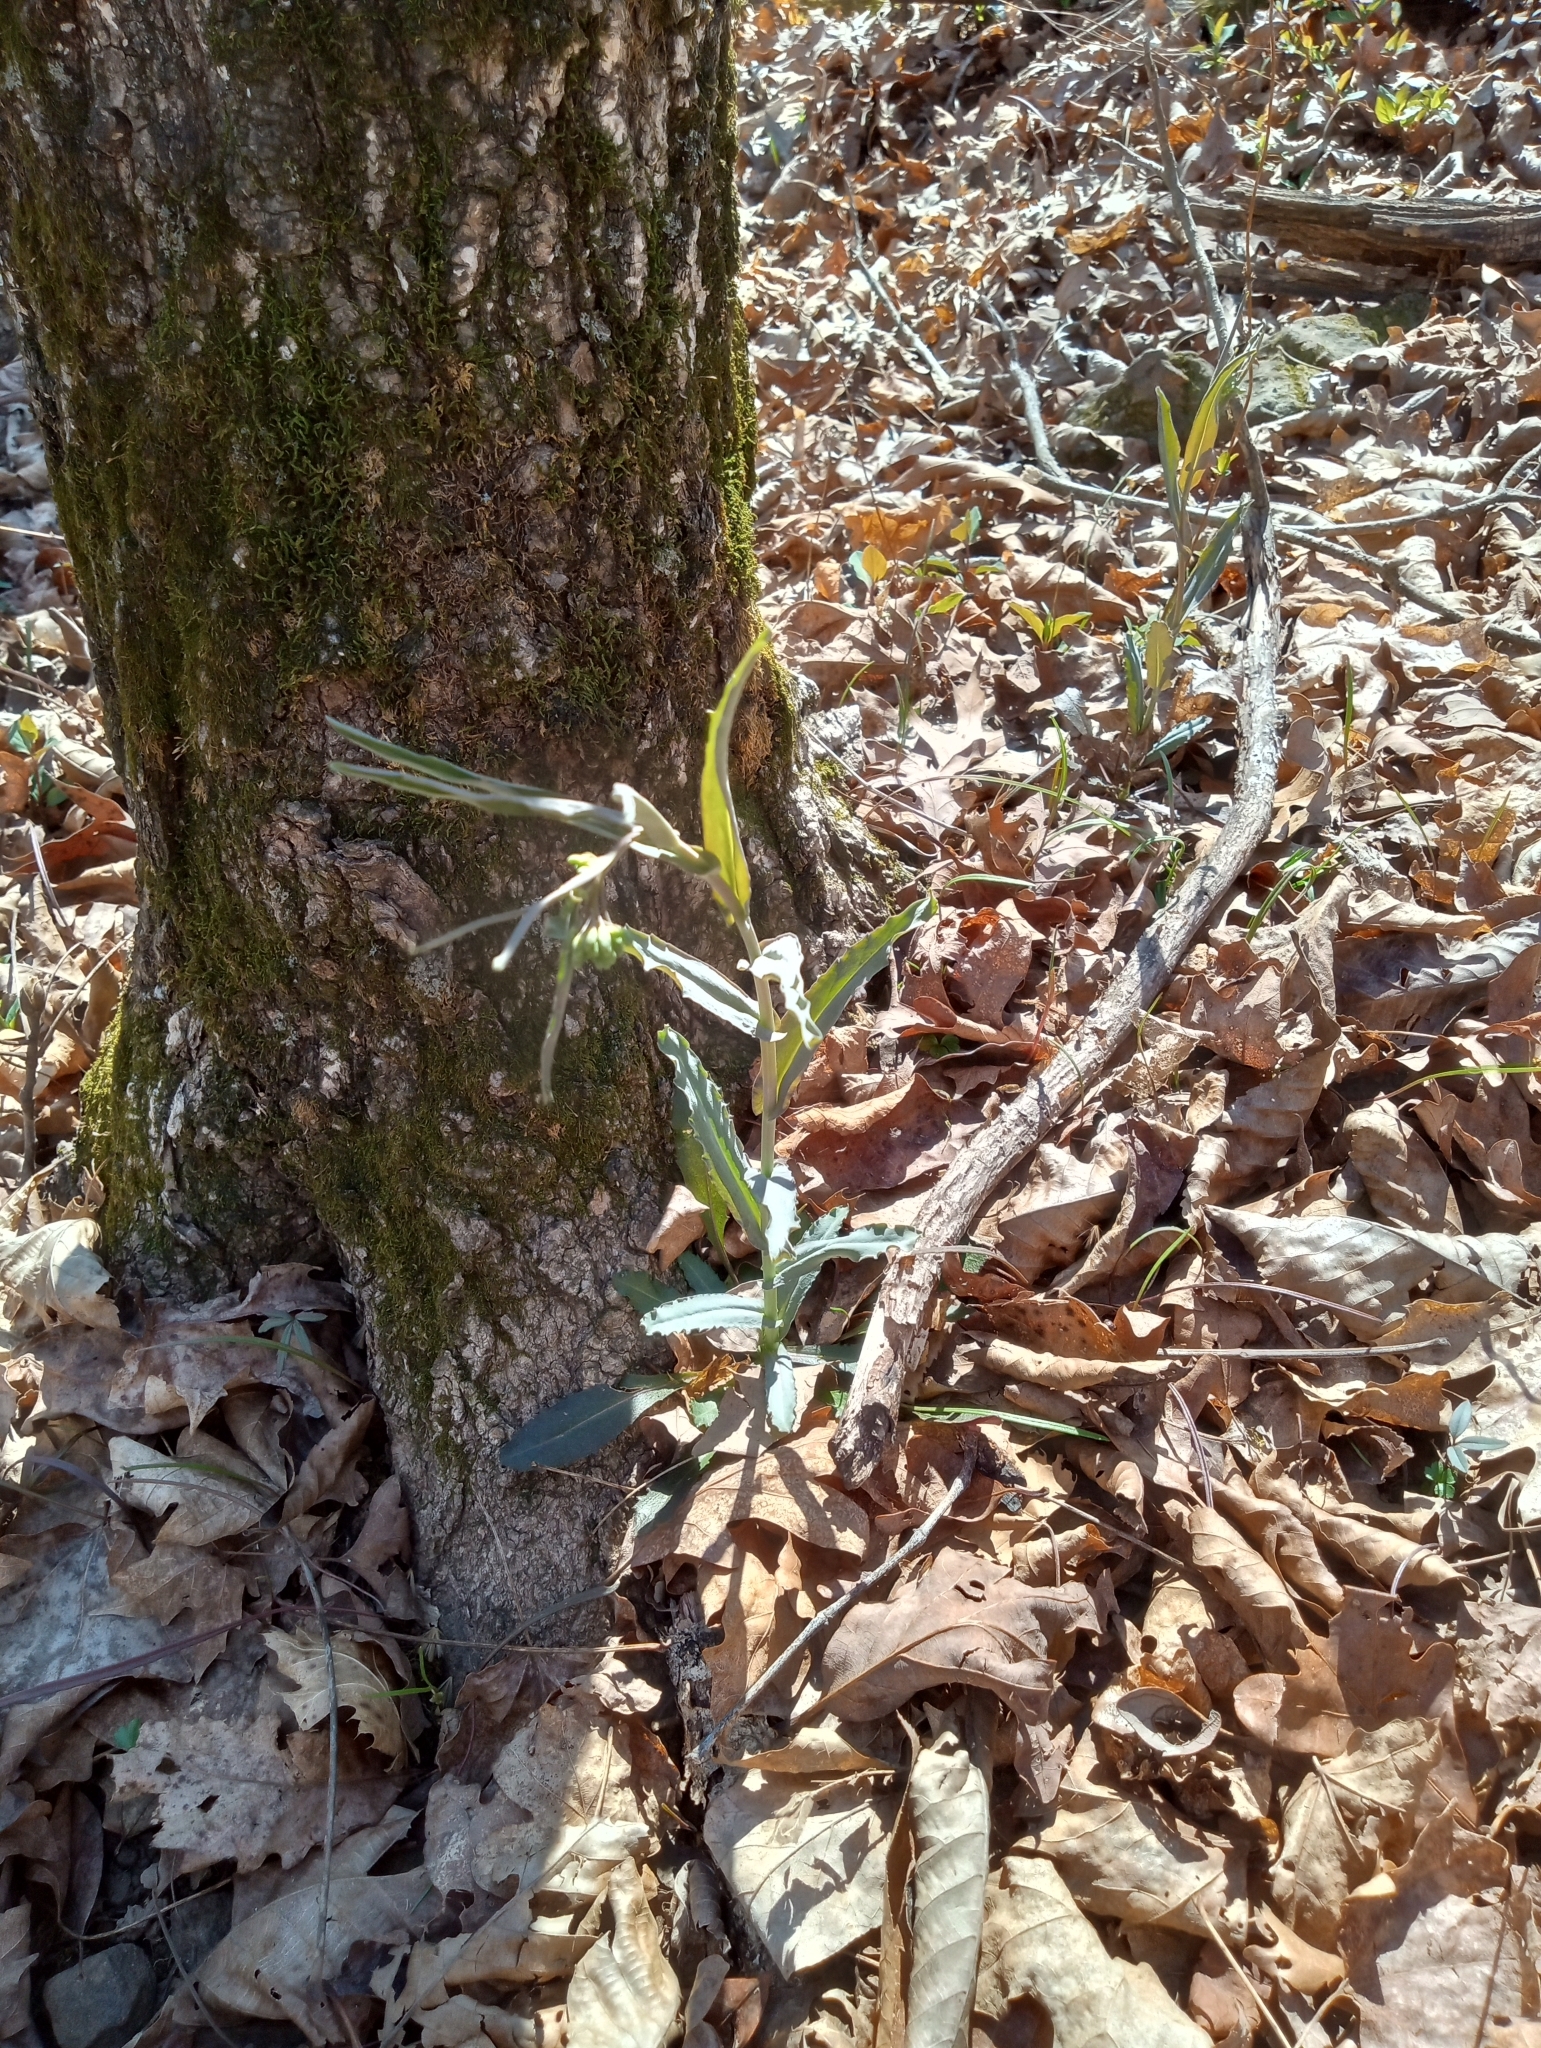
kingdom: Plantae
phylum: Tracheophyta
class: Magnoliopsida
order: Brassicales
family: Brassicaceae
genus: Borodinia
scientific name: Borodinia laevigata
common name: Smooth rockcress
